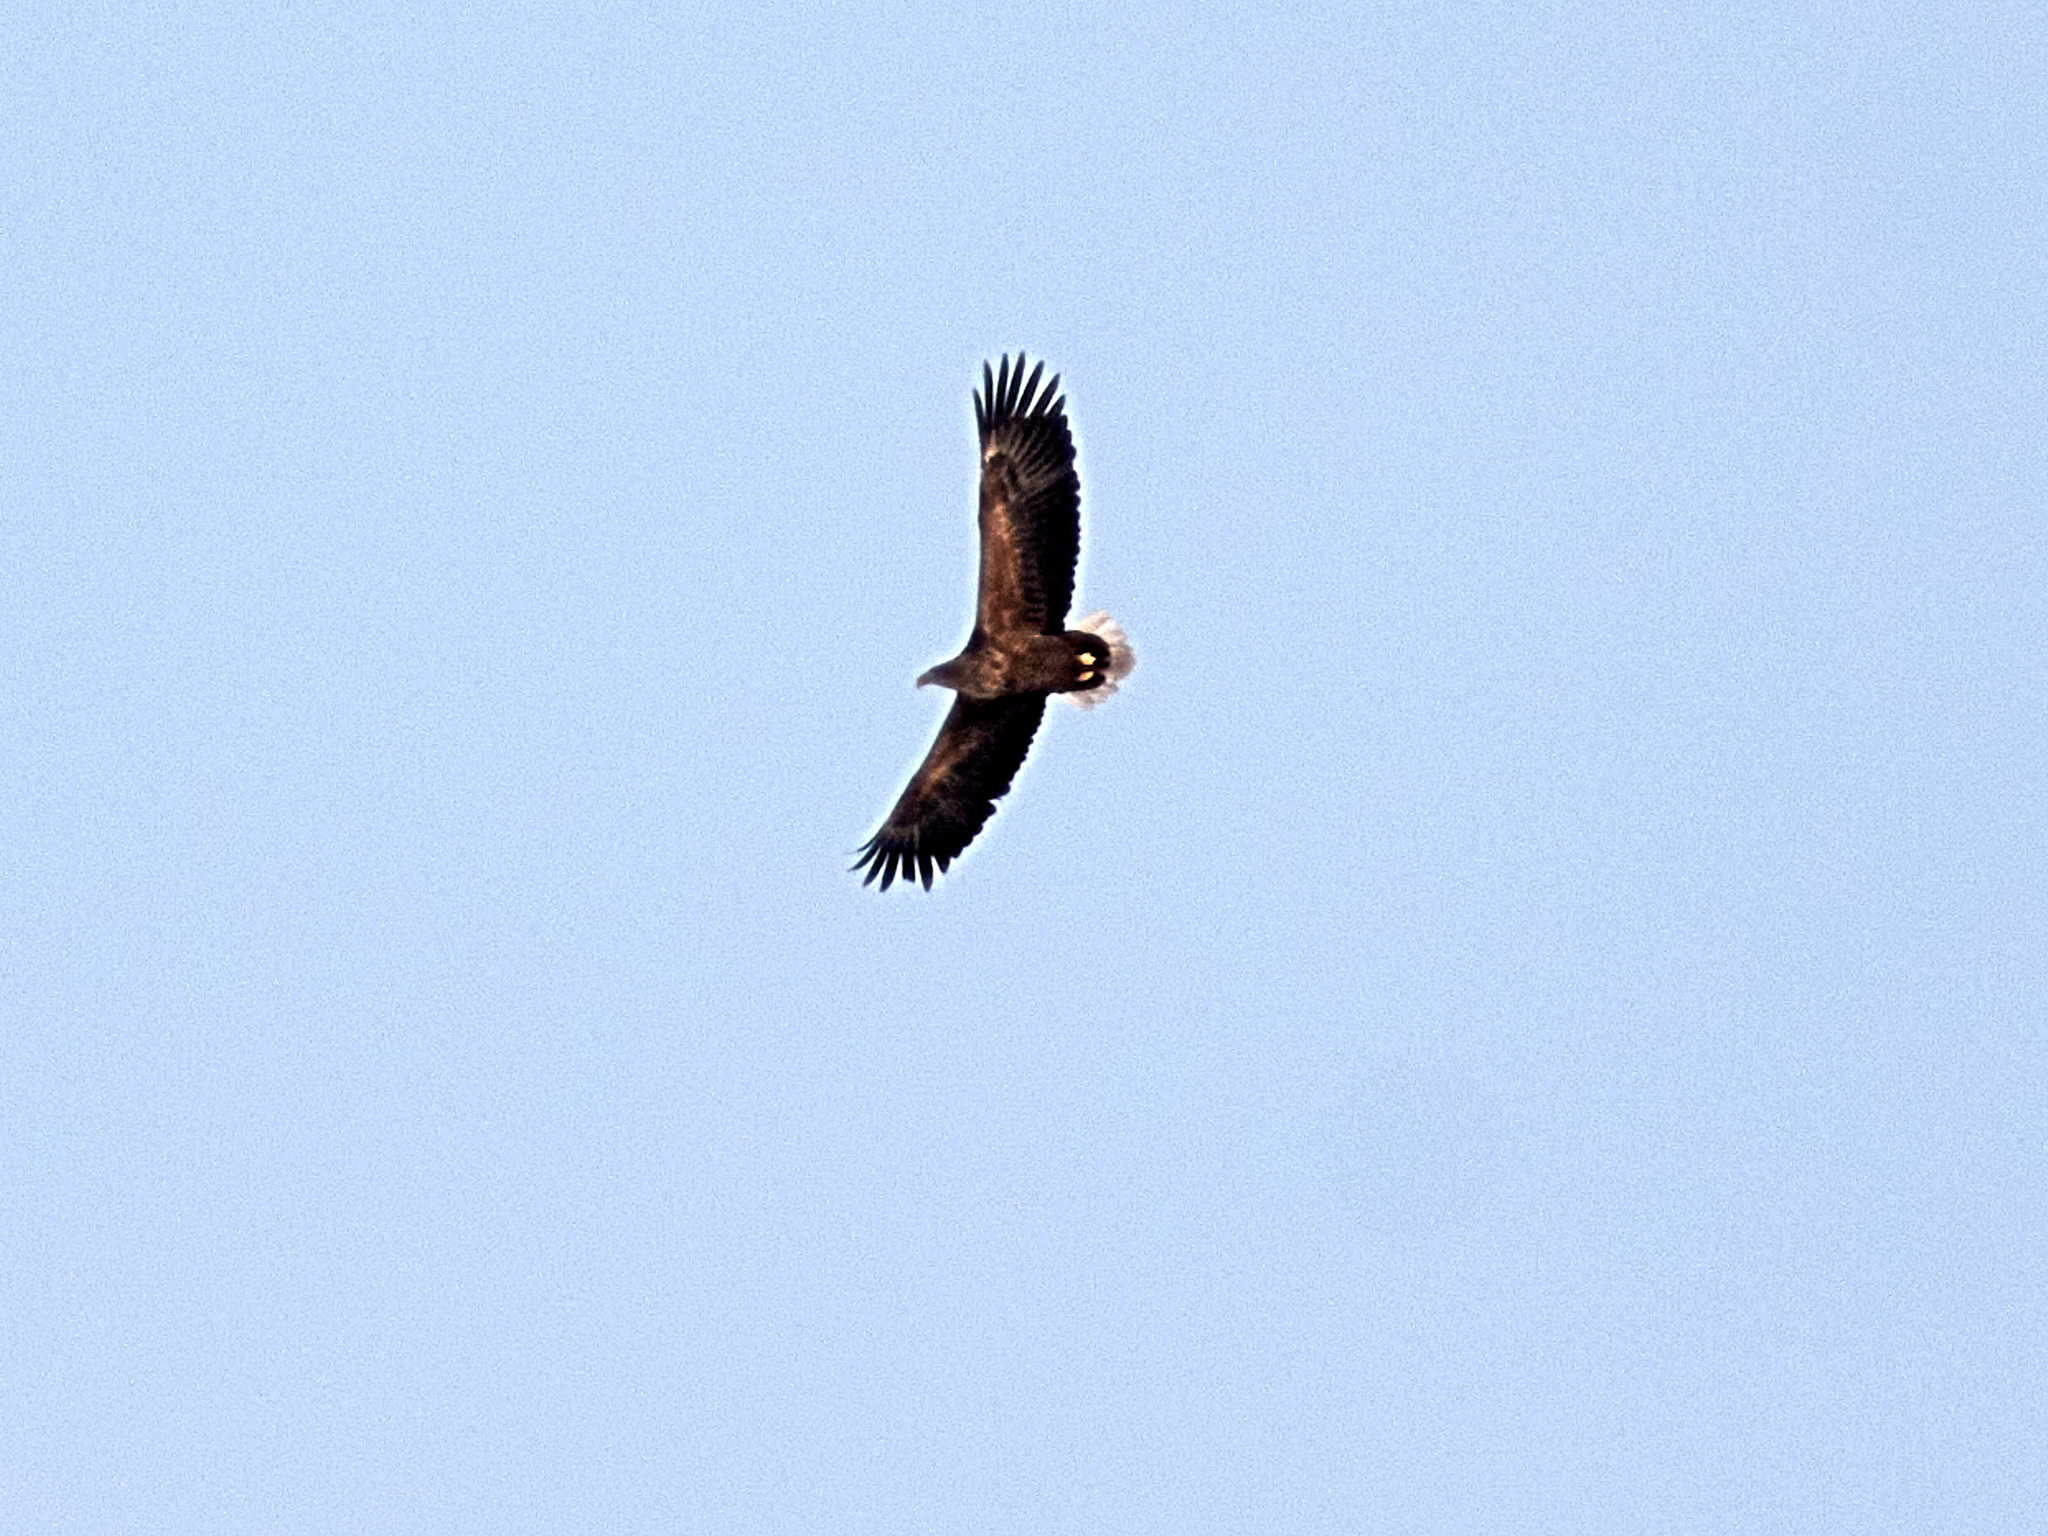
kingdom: Animalia
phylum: Chordata
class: Aves
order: Accipitriformes
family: Accipitridae
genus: Haliaeetus
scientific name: Haliaeetus albicilla
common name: White-tailed eagle
